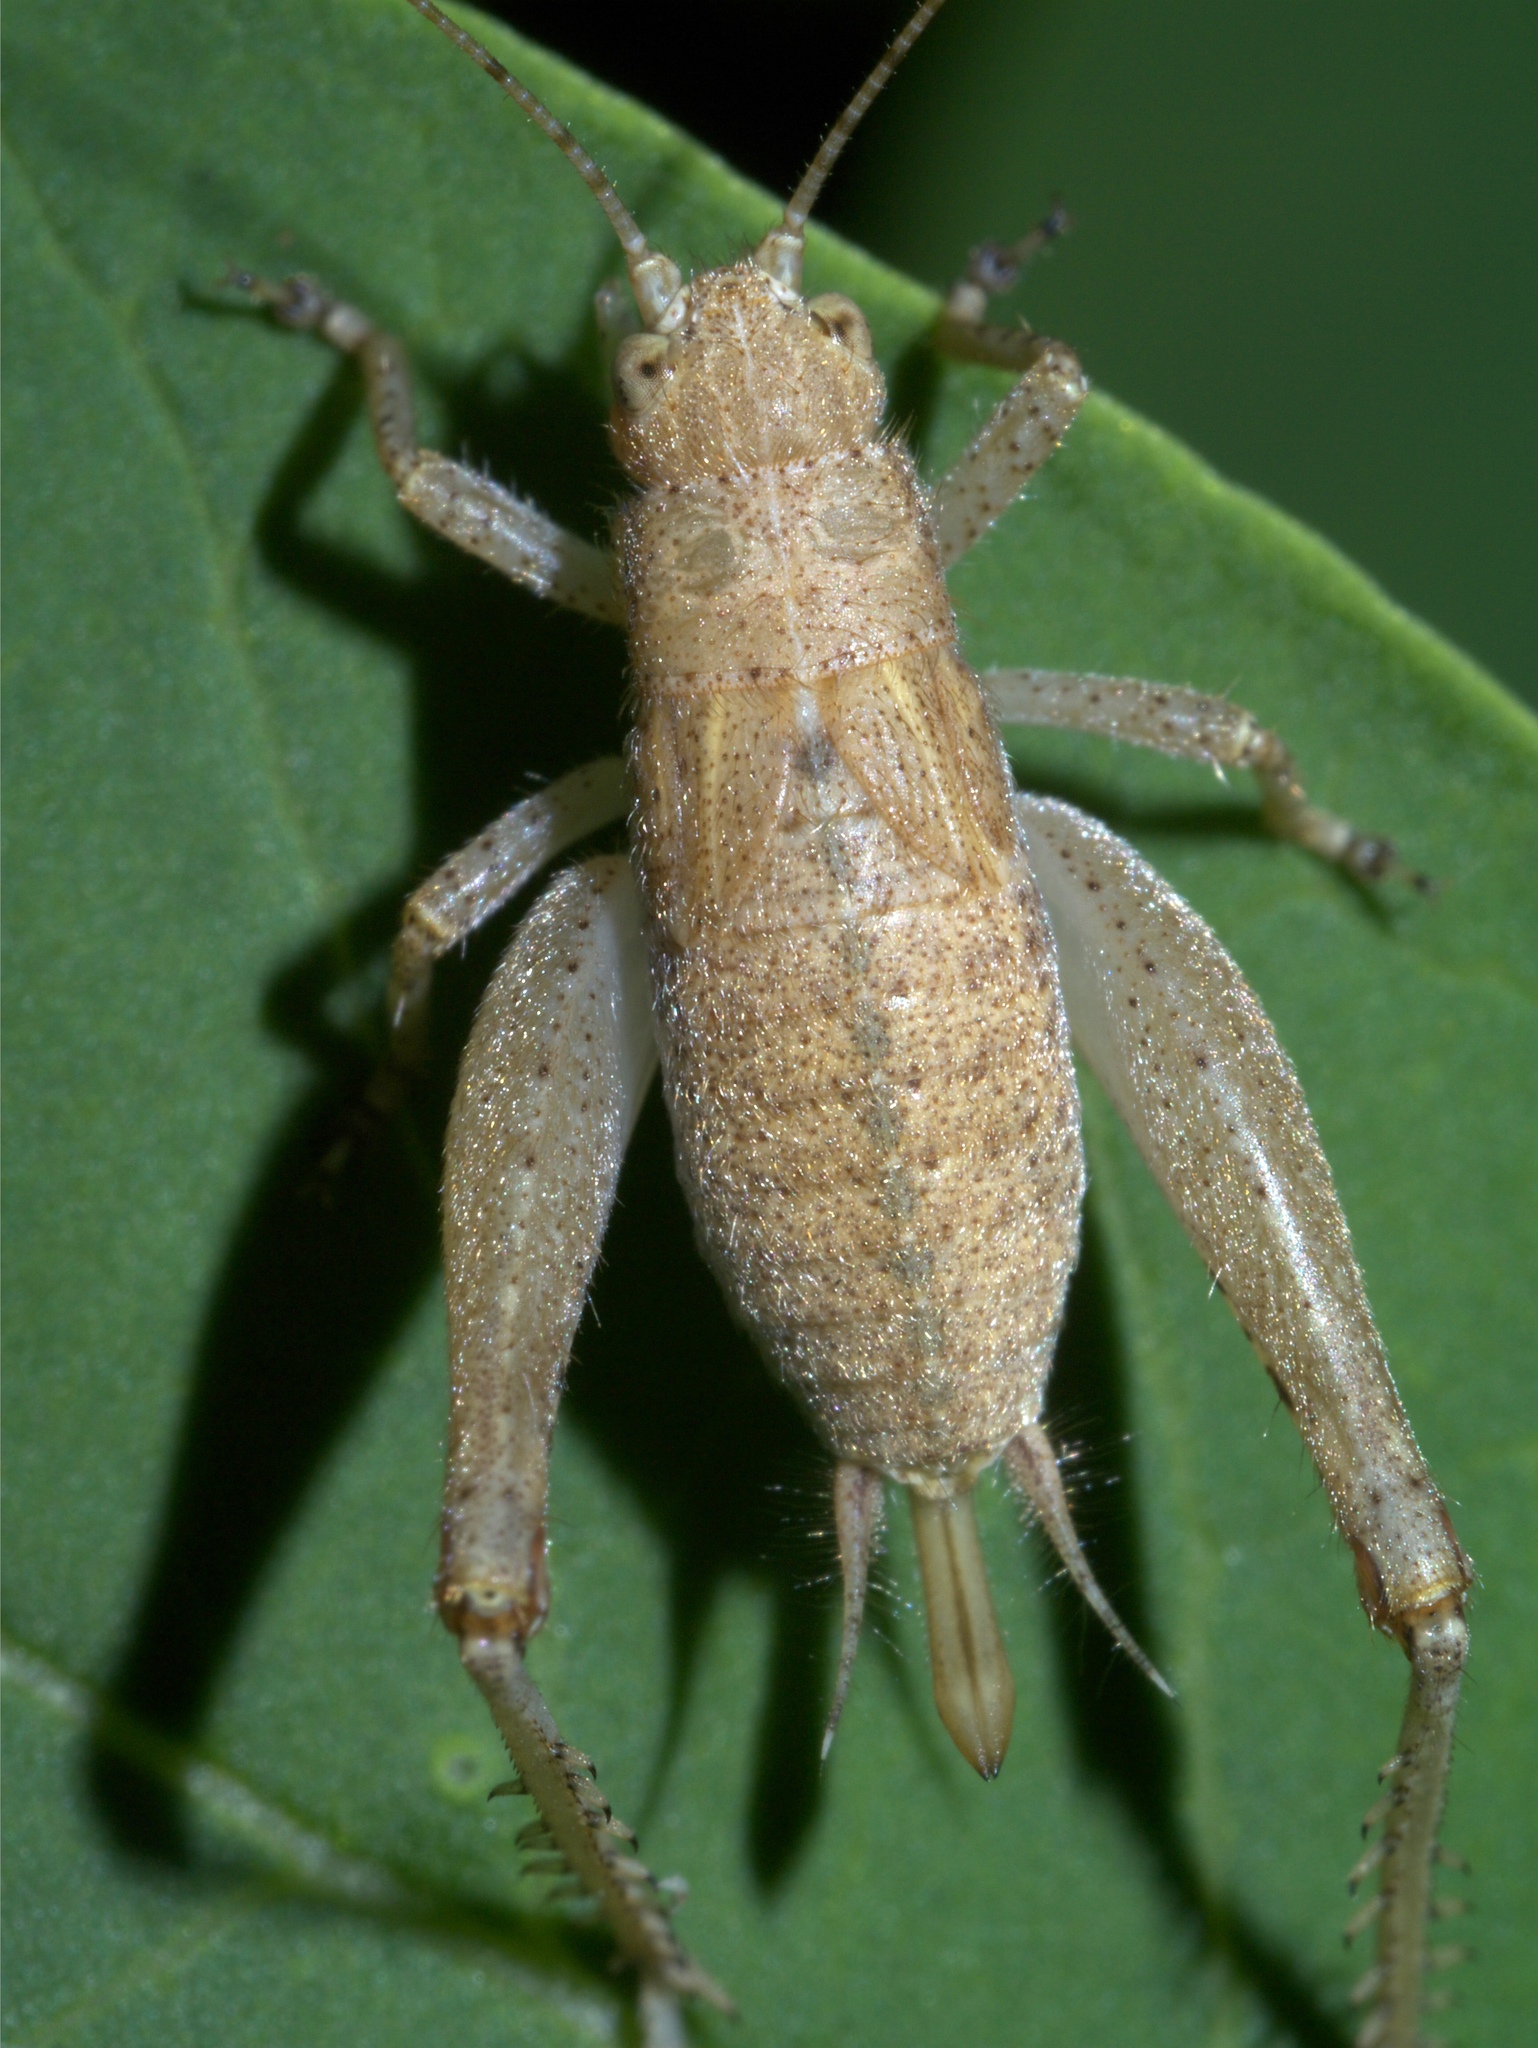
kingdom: Animalia
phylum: Arthropoda
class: Insecta
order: Orthoptera
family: Gryllidae
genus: Hapithus
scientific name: Hapithus agitator
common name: Restless bush cricket
